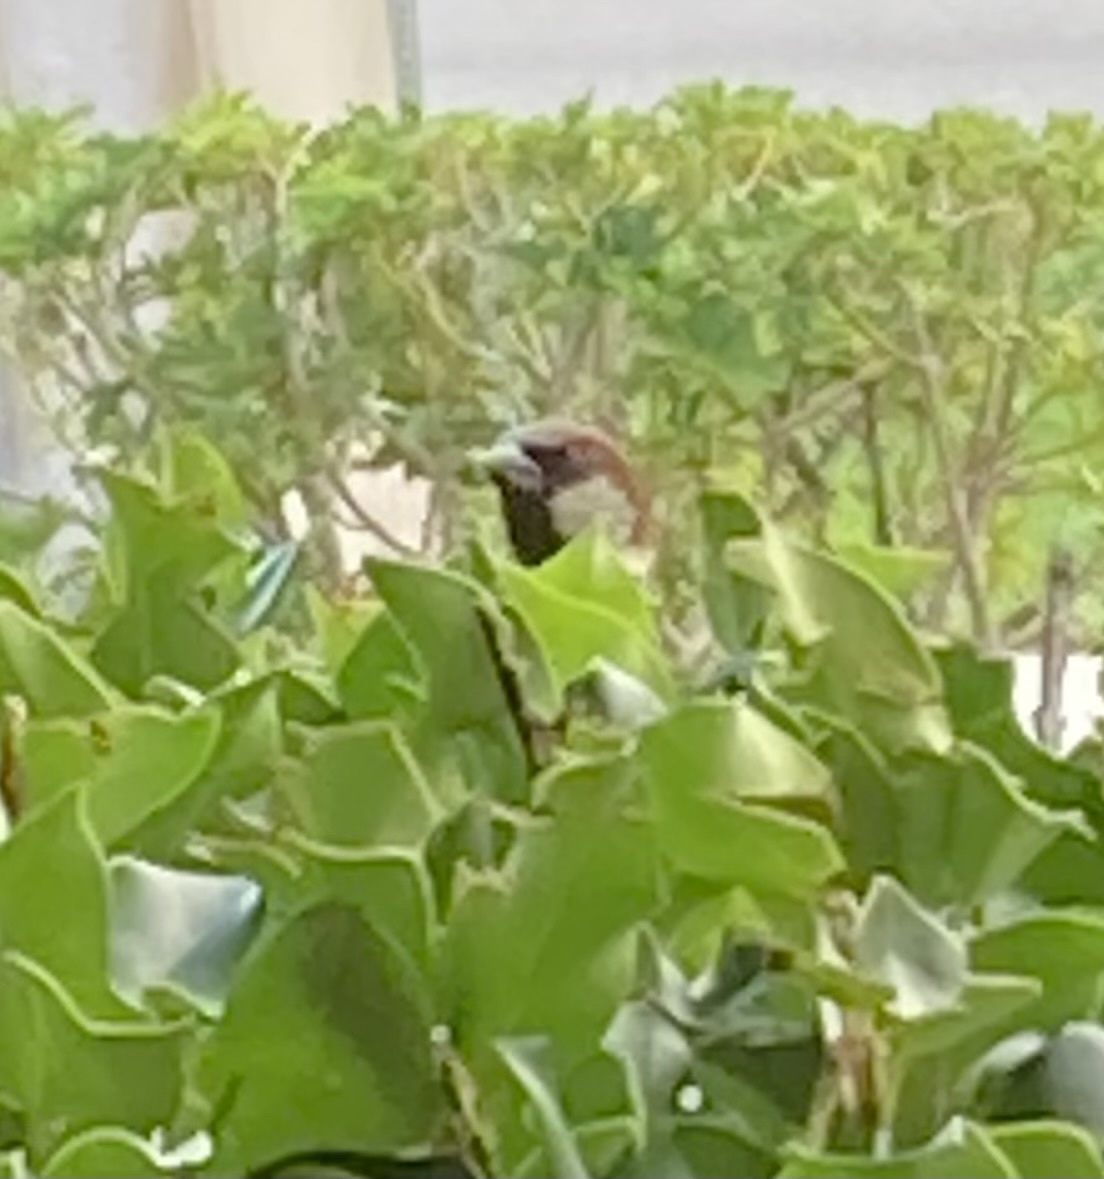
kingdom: Animalia
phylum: Chordata
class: Aves
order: Passeriformes
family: Passeridae
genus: Passer
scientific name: Passer domesticus
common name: House sparrow
